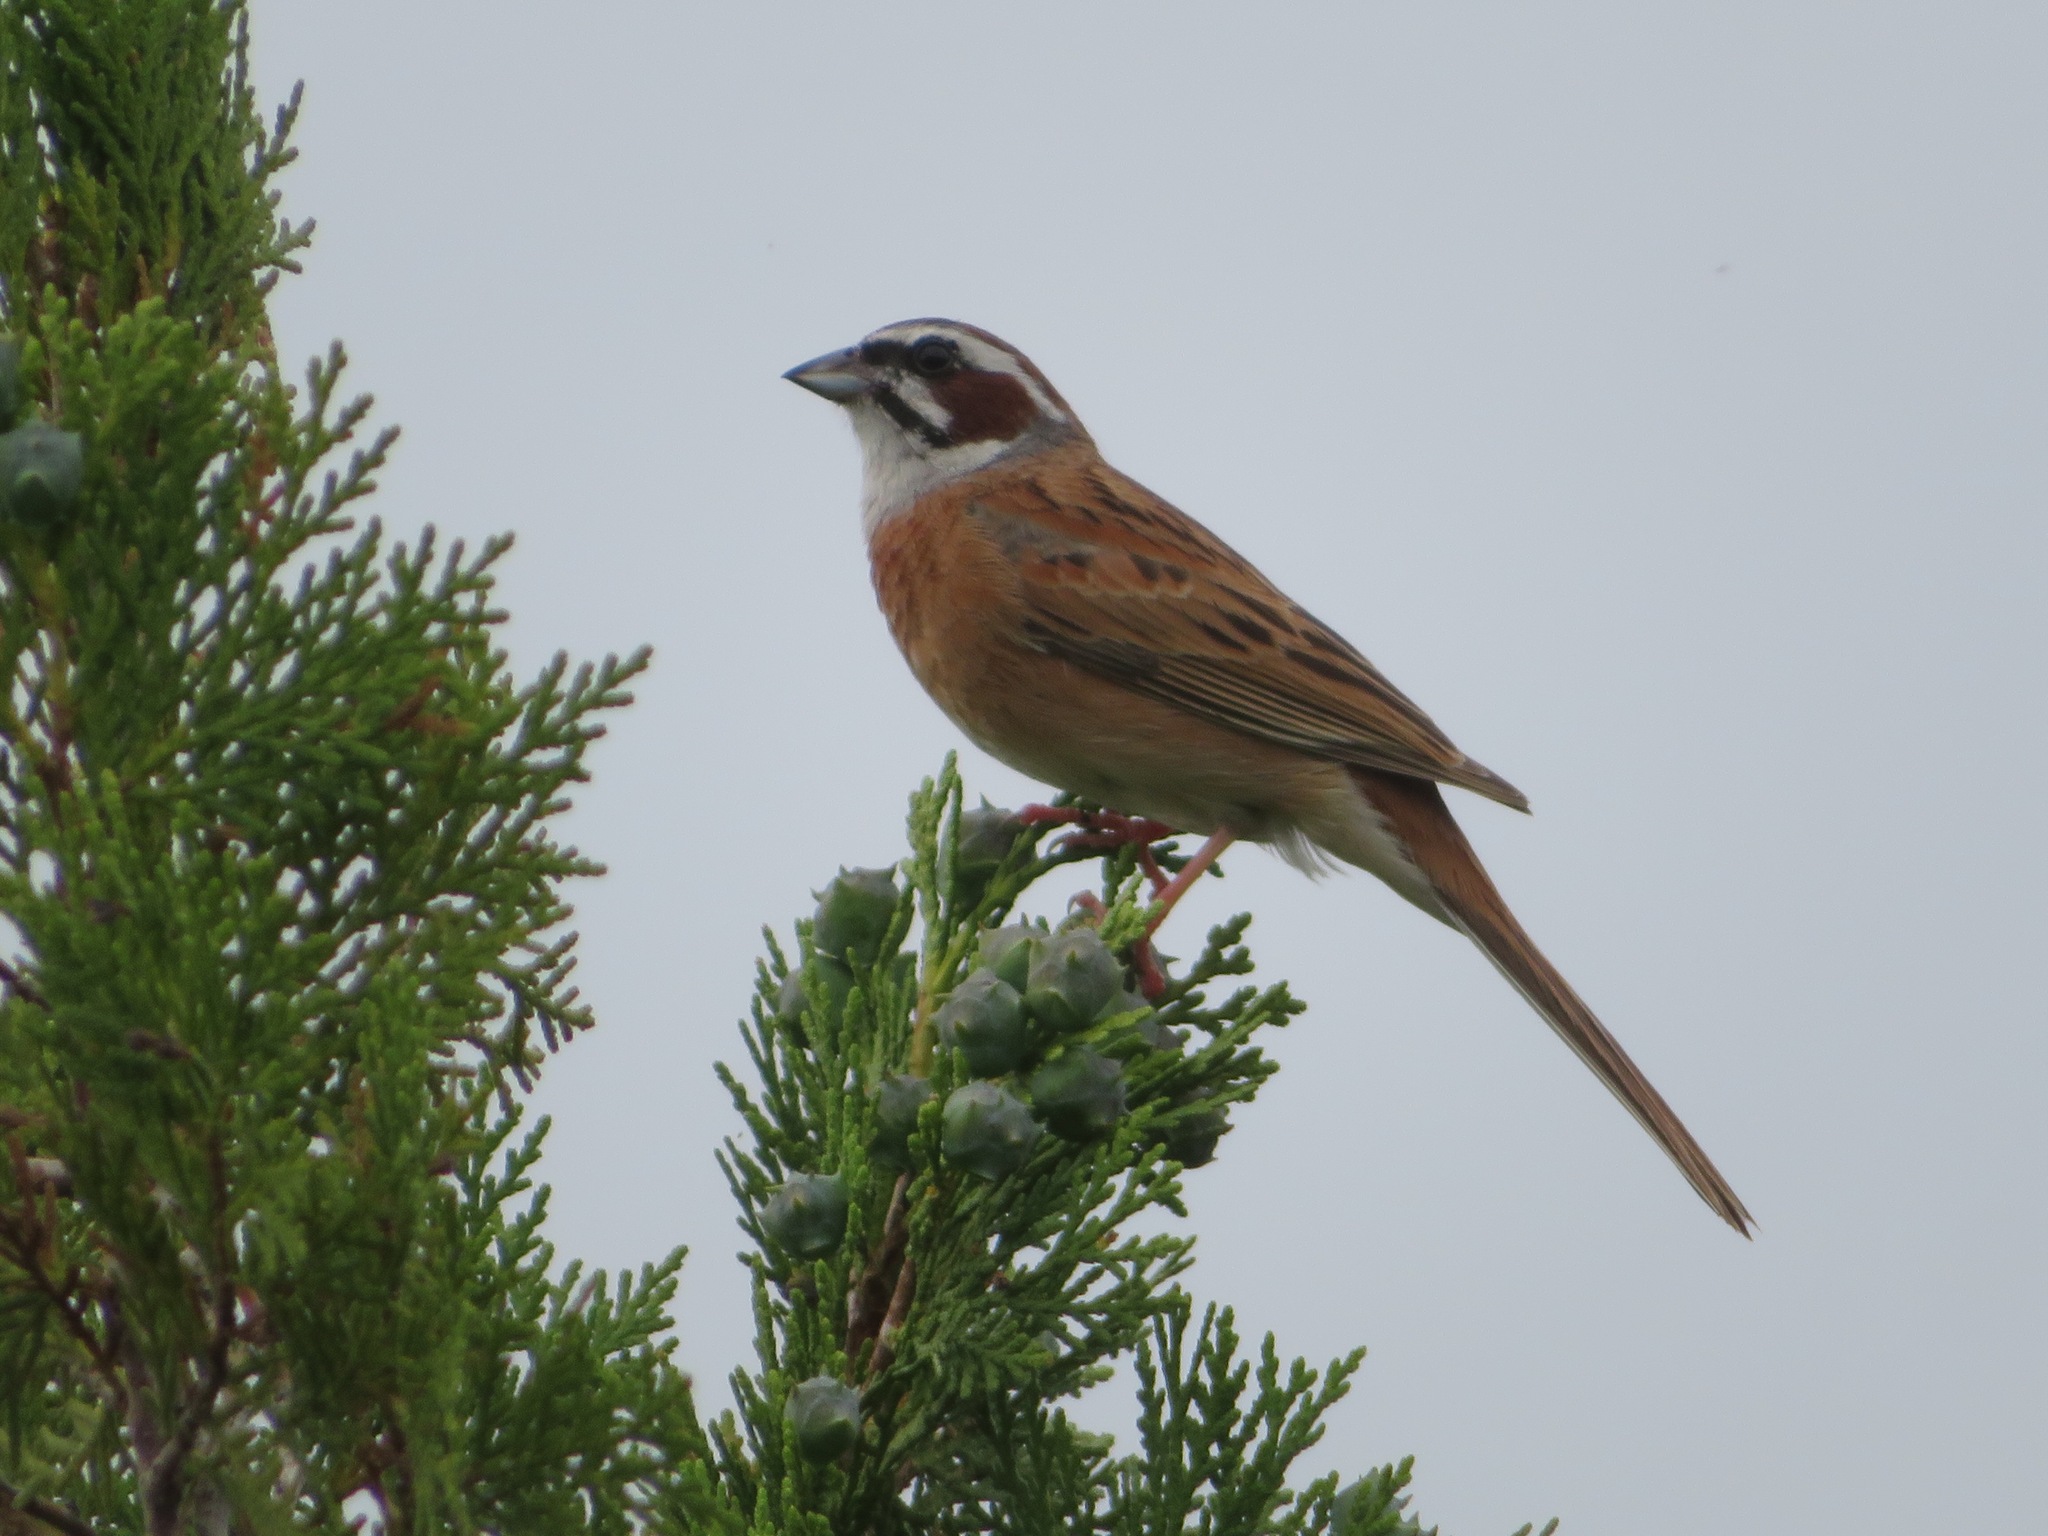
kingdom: Animalia
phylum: Chordata
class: Aves
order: Passeriformes
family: Emberizidae
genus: Emberiza
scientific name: Emberiza cioides
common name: Meadow bunting
